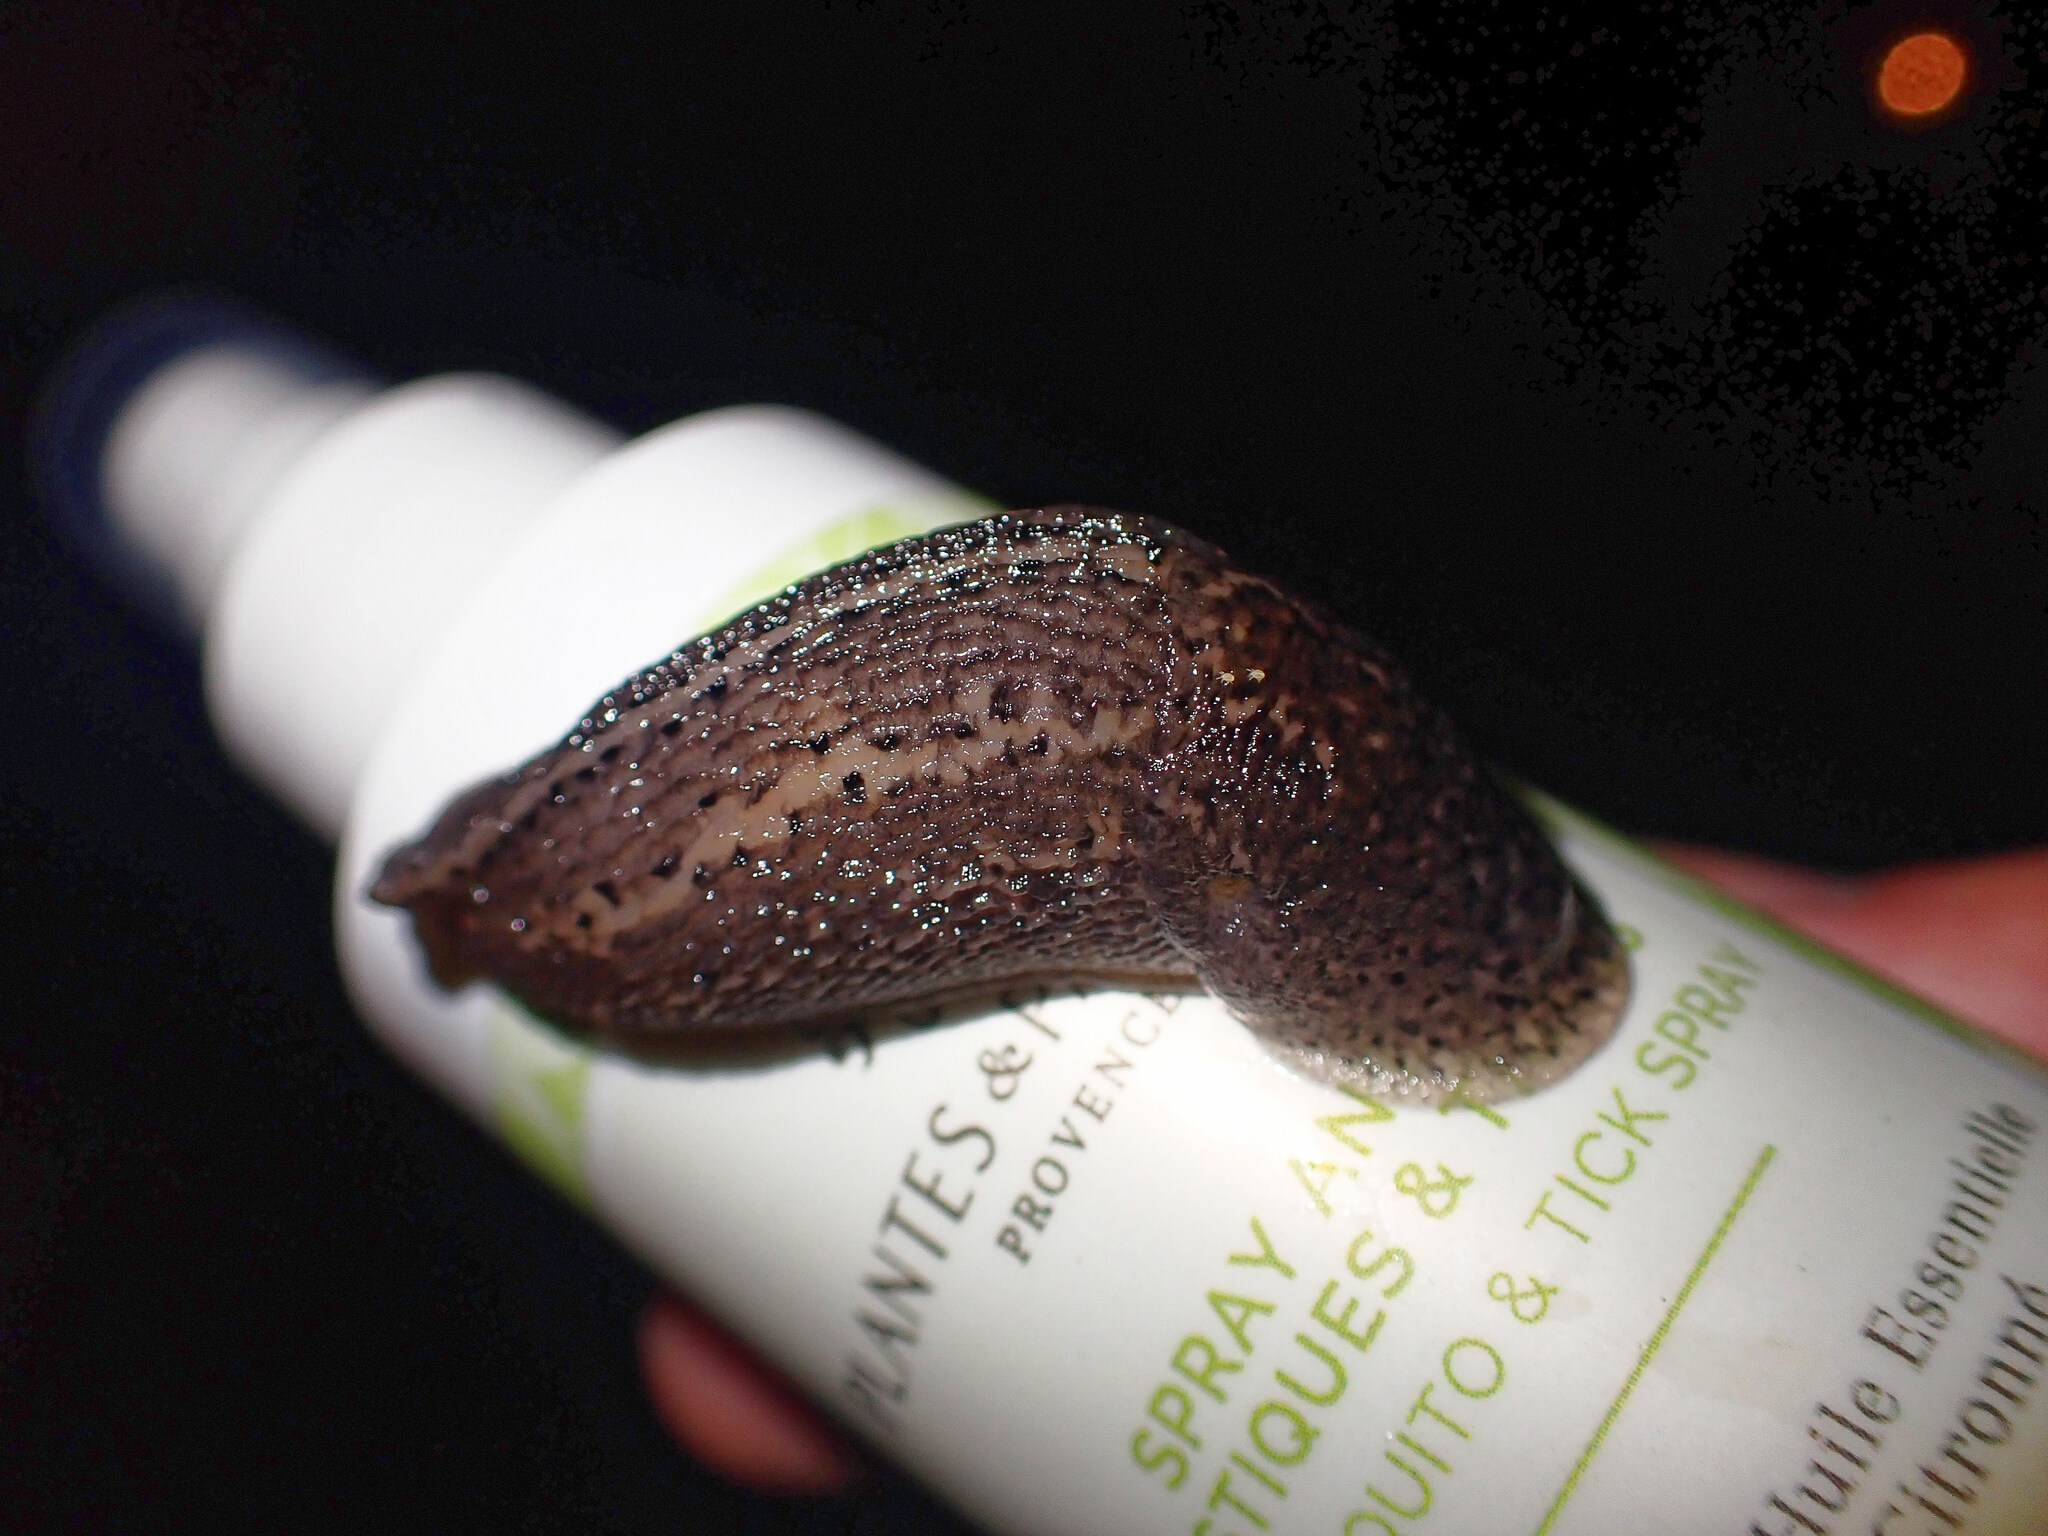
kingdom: Animalia
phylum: Mollusca
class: Gastropoda
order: Stylommatophora
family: Limacidae
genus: Limax
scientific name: Limax maximus
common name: Great grey slug
